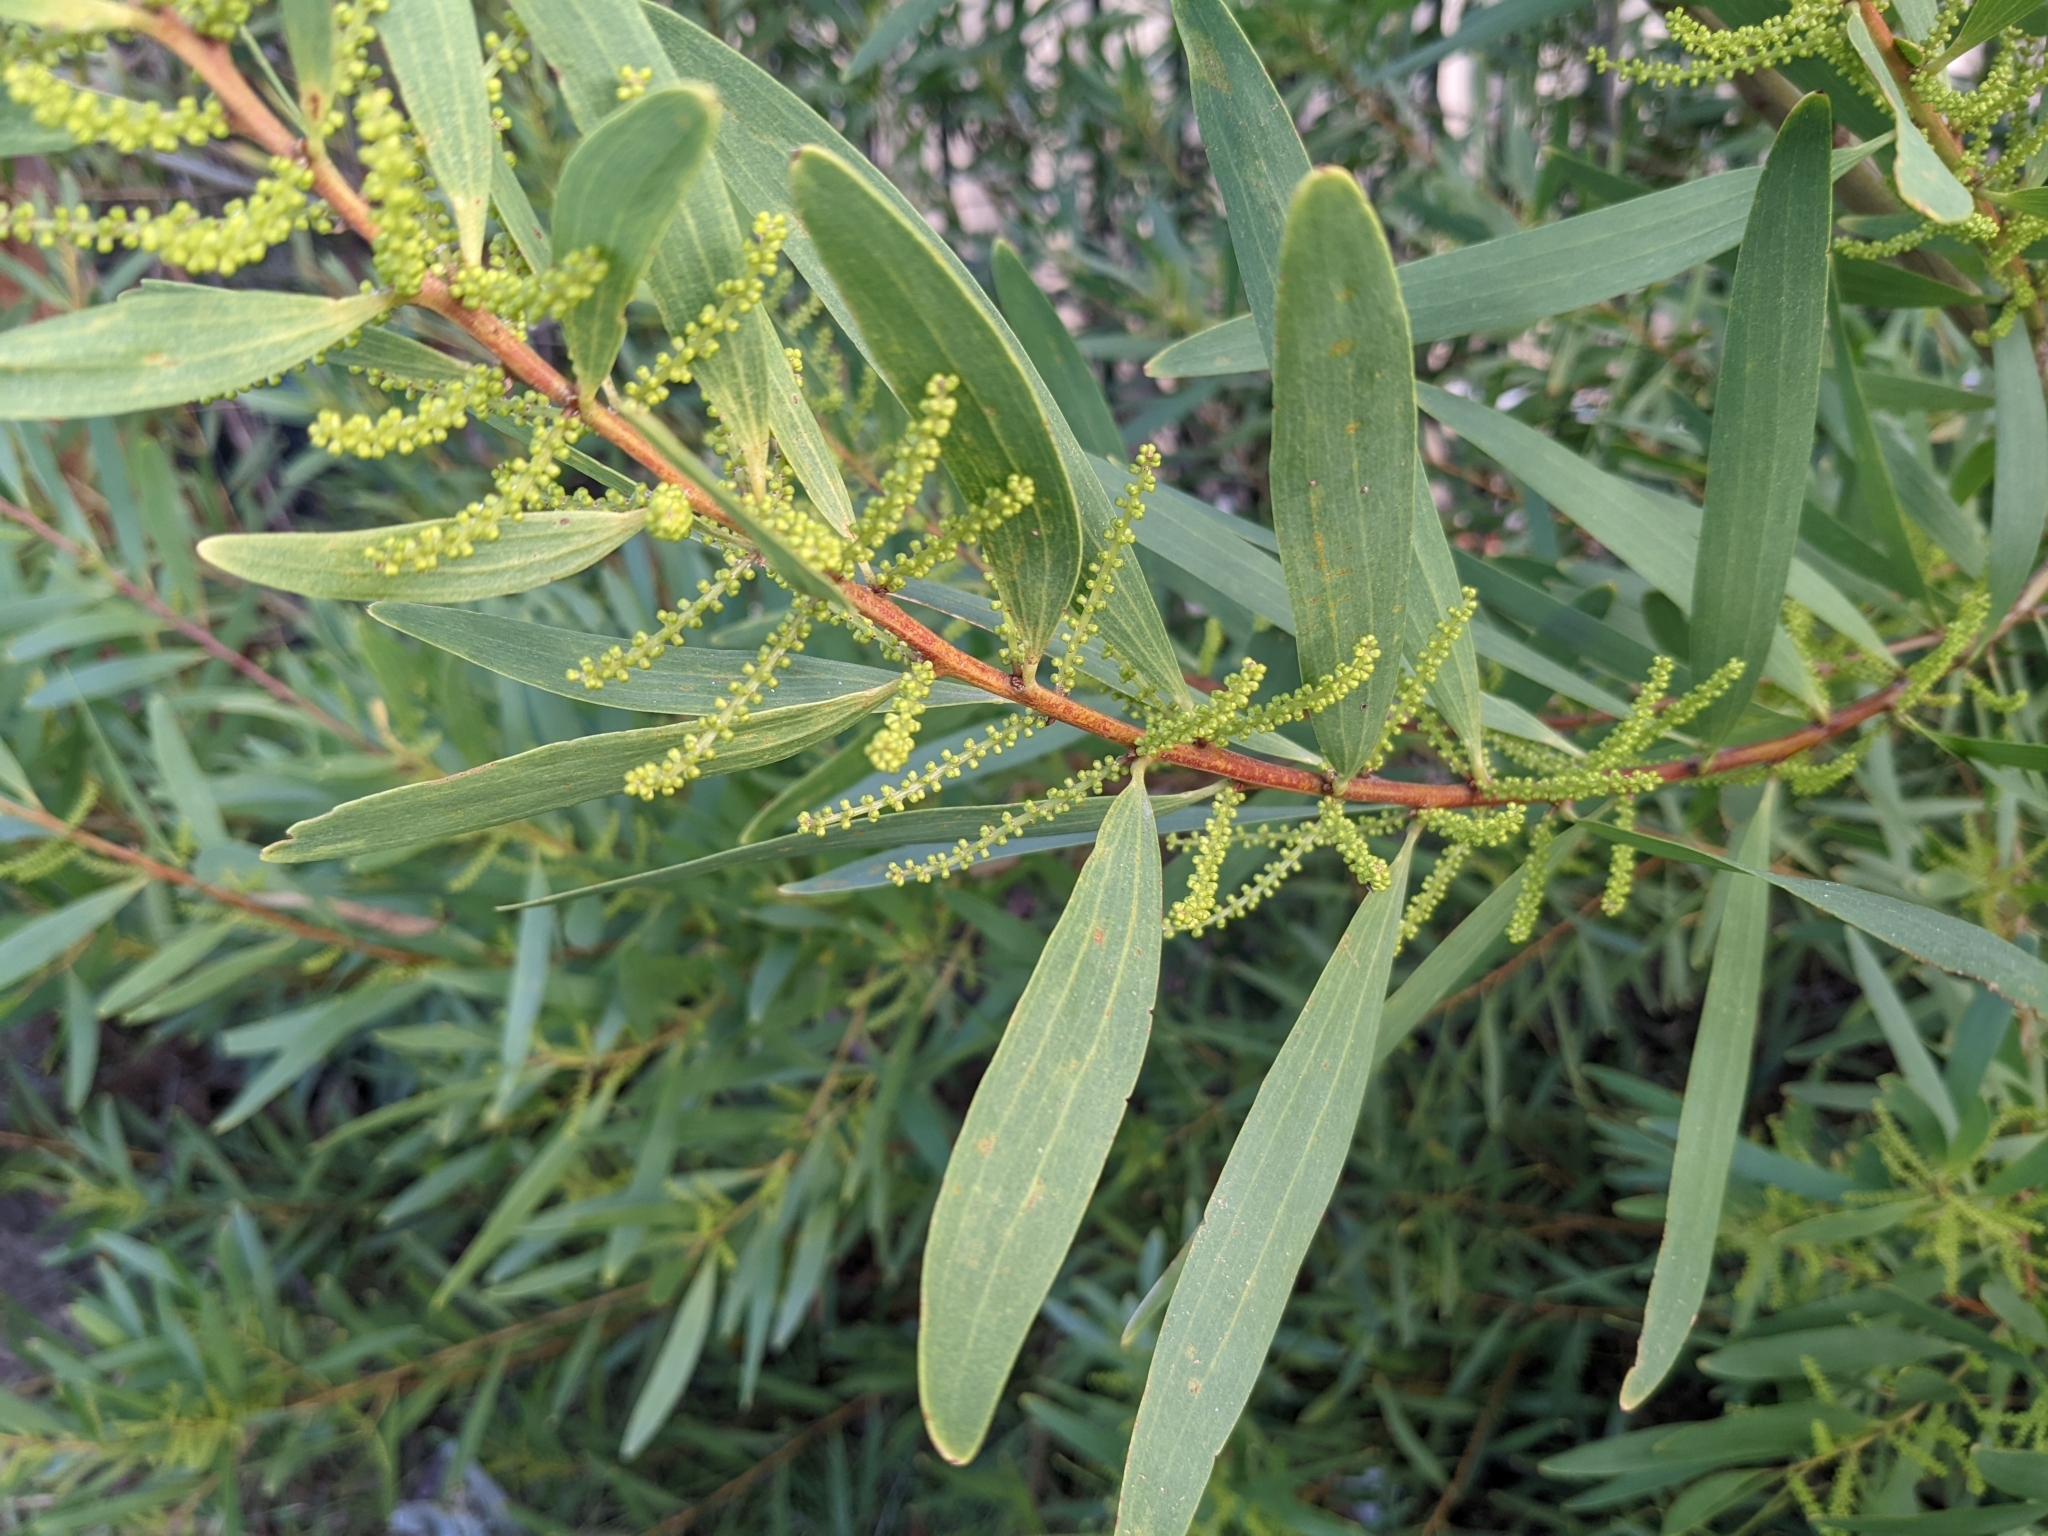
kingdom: Plantae
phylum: Tracheophyta
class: Magnoliopsida
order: Fabales
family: Fabaceae
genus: Acacia
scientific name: Acacia longifolia
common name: Sydney golden wattle
